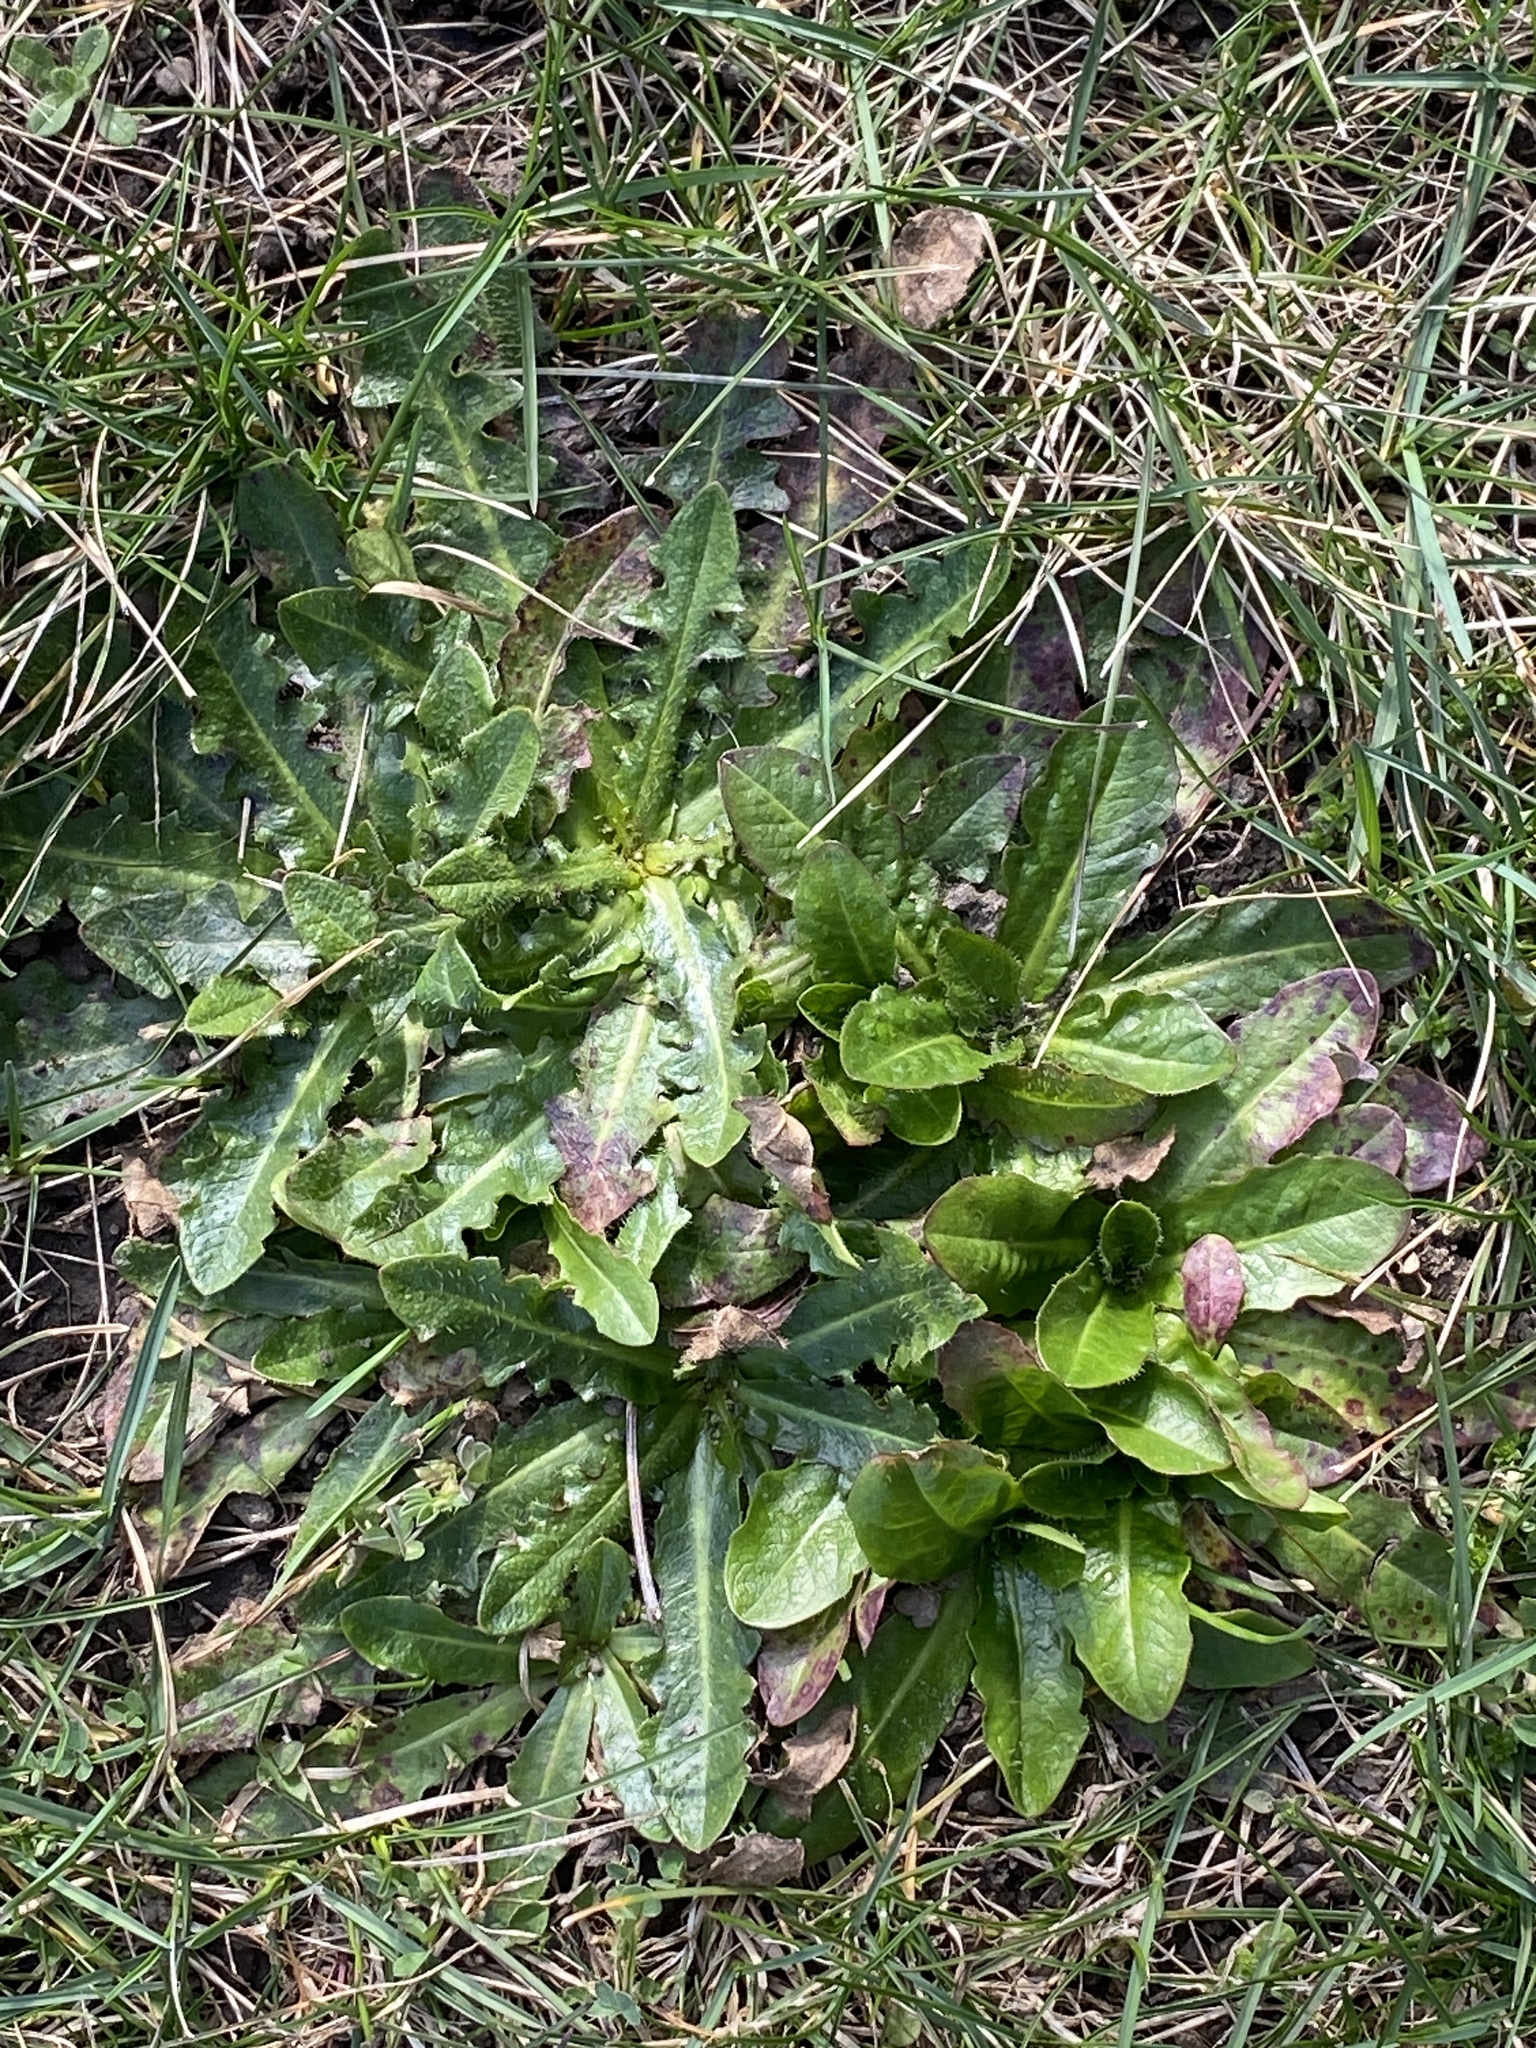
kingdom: Plantae
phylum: Tracheophyta
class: Magnoliopsida
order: Asterales
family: Asteraceae
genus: Hypochaeris
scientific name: Hypochaeris radicata
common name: Flatweed
